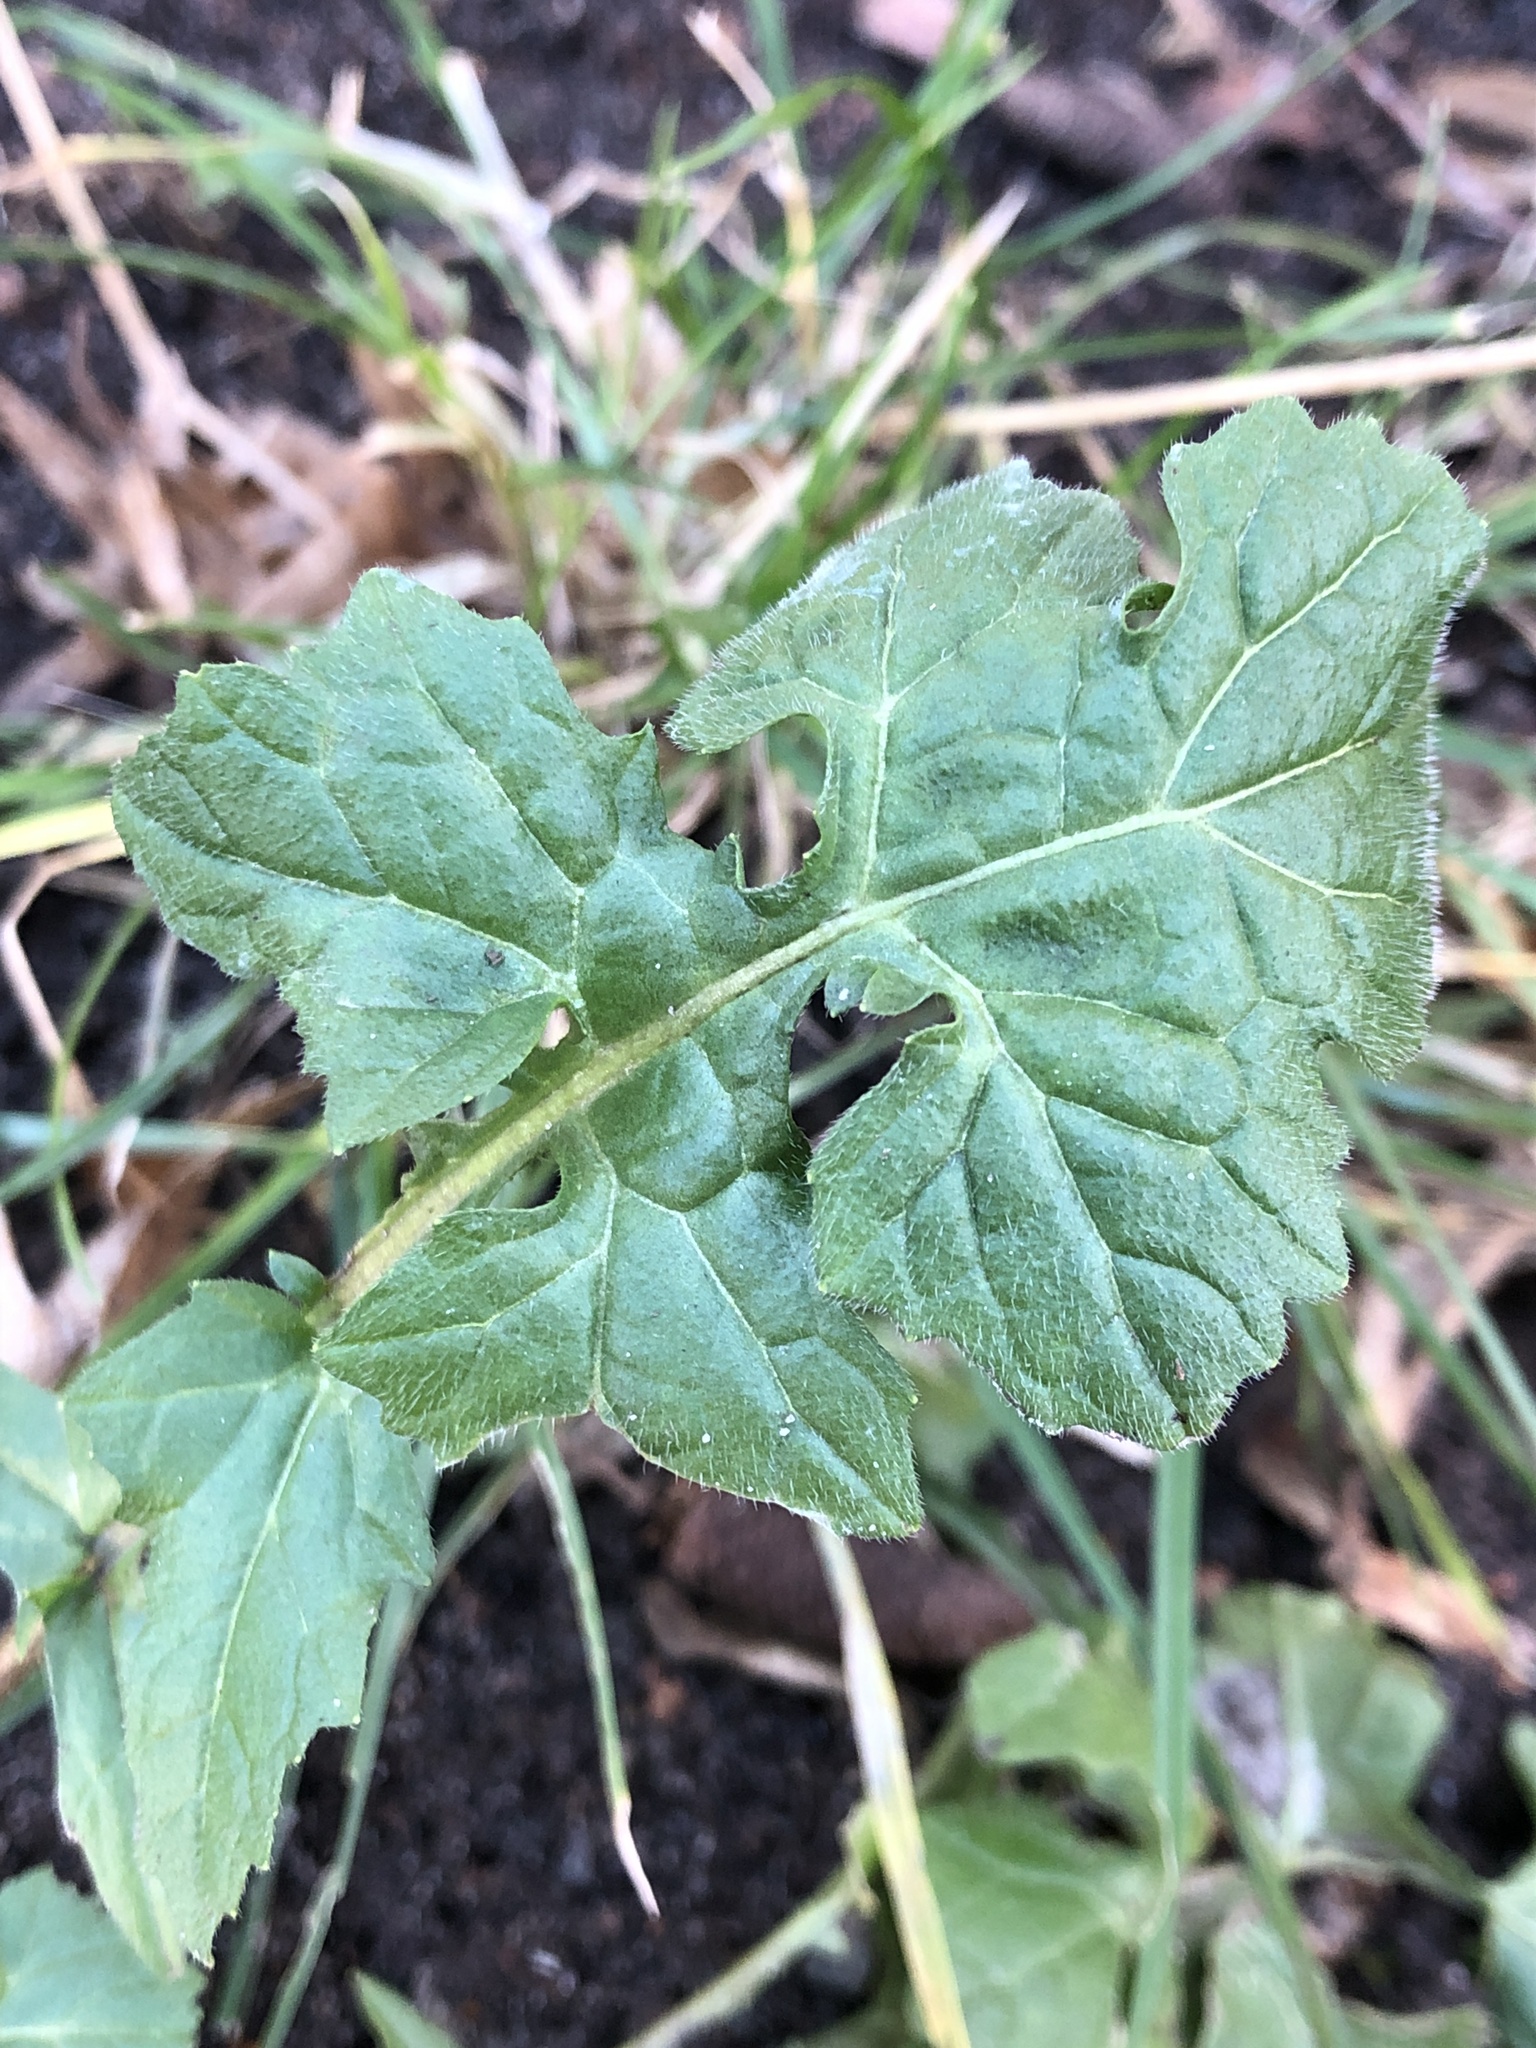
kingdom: Plantae
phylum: Tracheophyta
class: Magnoliopsida
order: Brassicales
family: Brassicaceae
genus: Sisymbrium
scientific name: Sisymbrium officinale
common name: Hedge mustard
